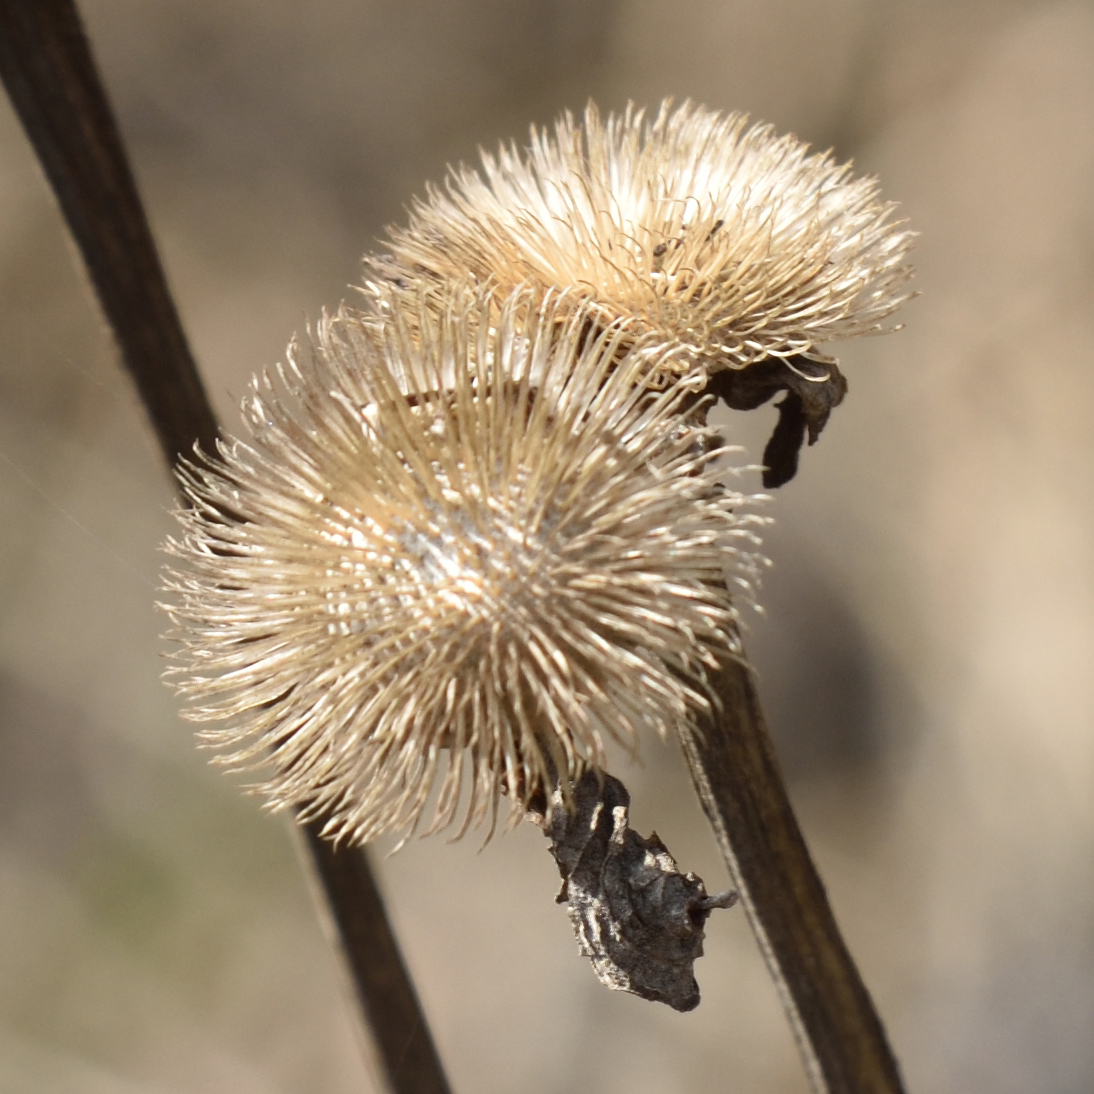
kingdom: Plantae
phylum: Tracheophyta
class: Magnoliopsida
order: Asterales
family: Asteraceae
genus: Telekia
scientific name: Telekia speciosa
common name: Yellow oxeye
